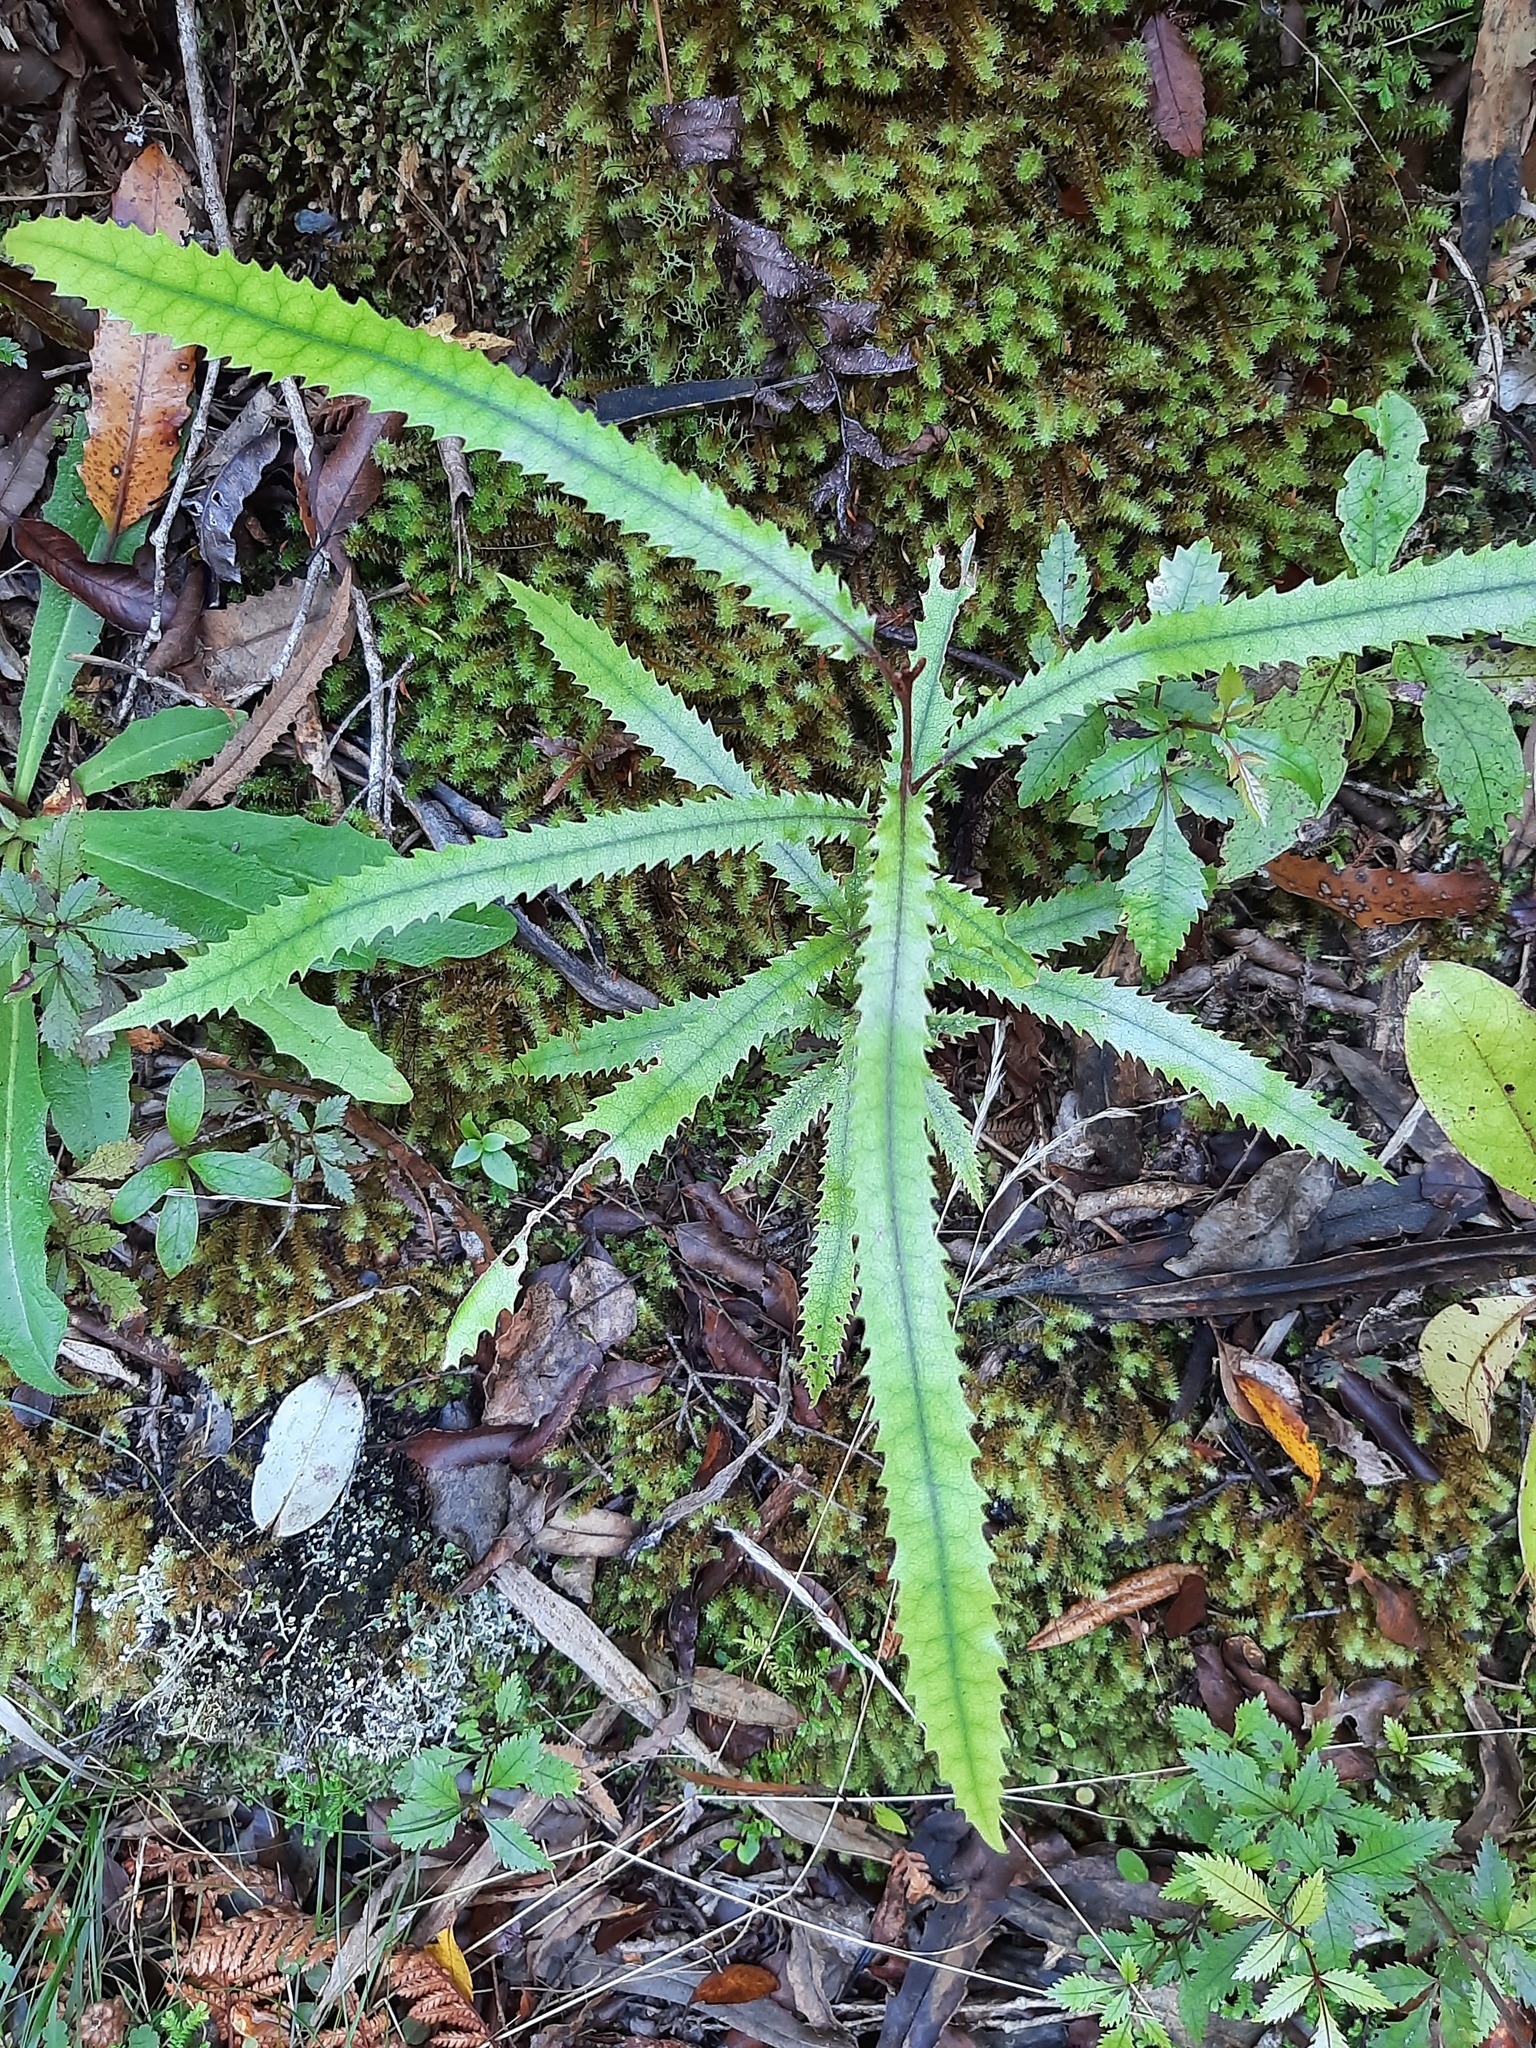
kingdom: Plantae
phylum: Tracheophyta
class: Magnoliopsida
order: Proteales
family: Proteaceae
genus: Knightia
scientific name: Knightia excelsa
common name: New zealand-honeysuckle
